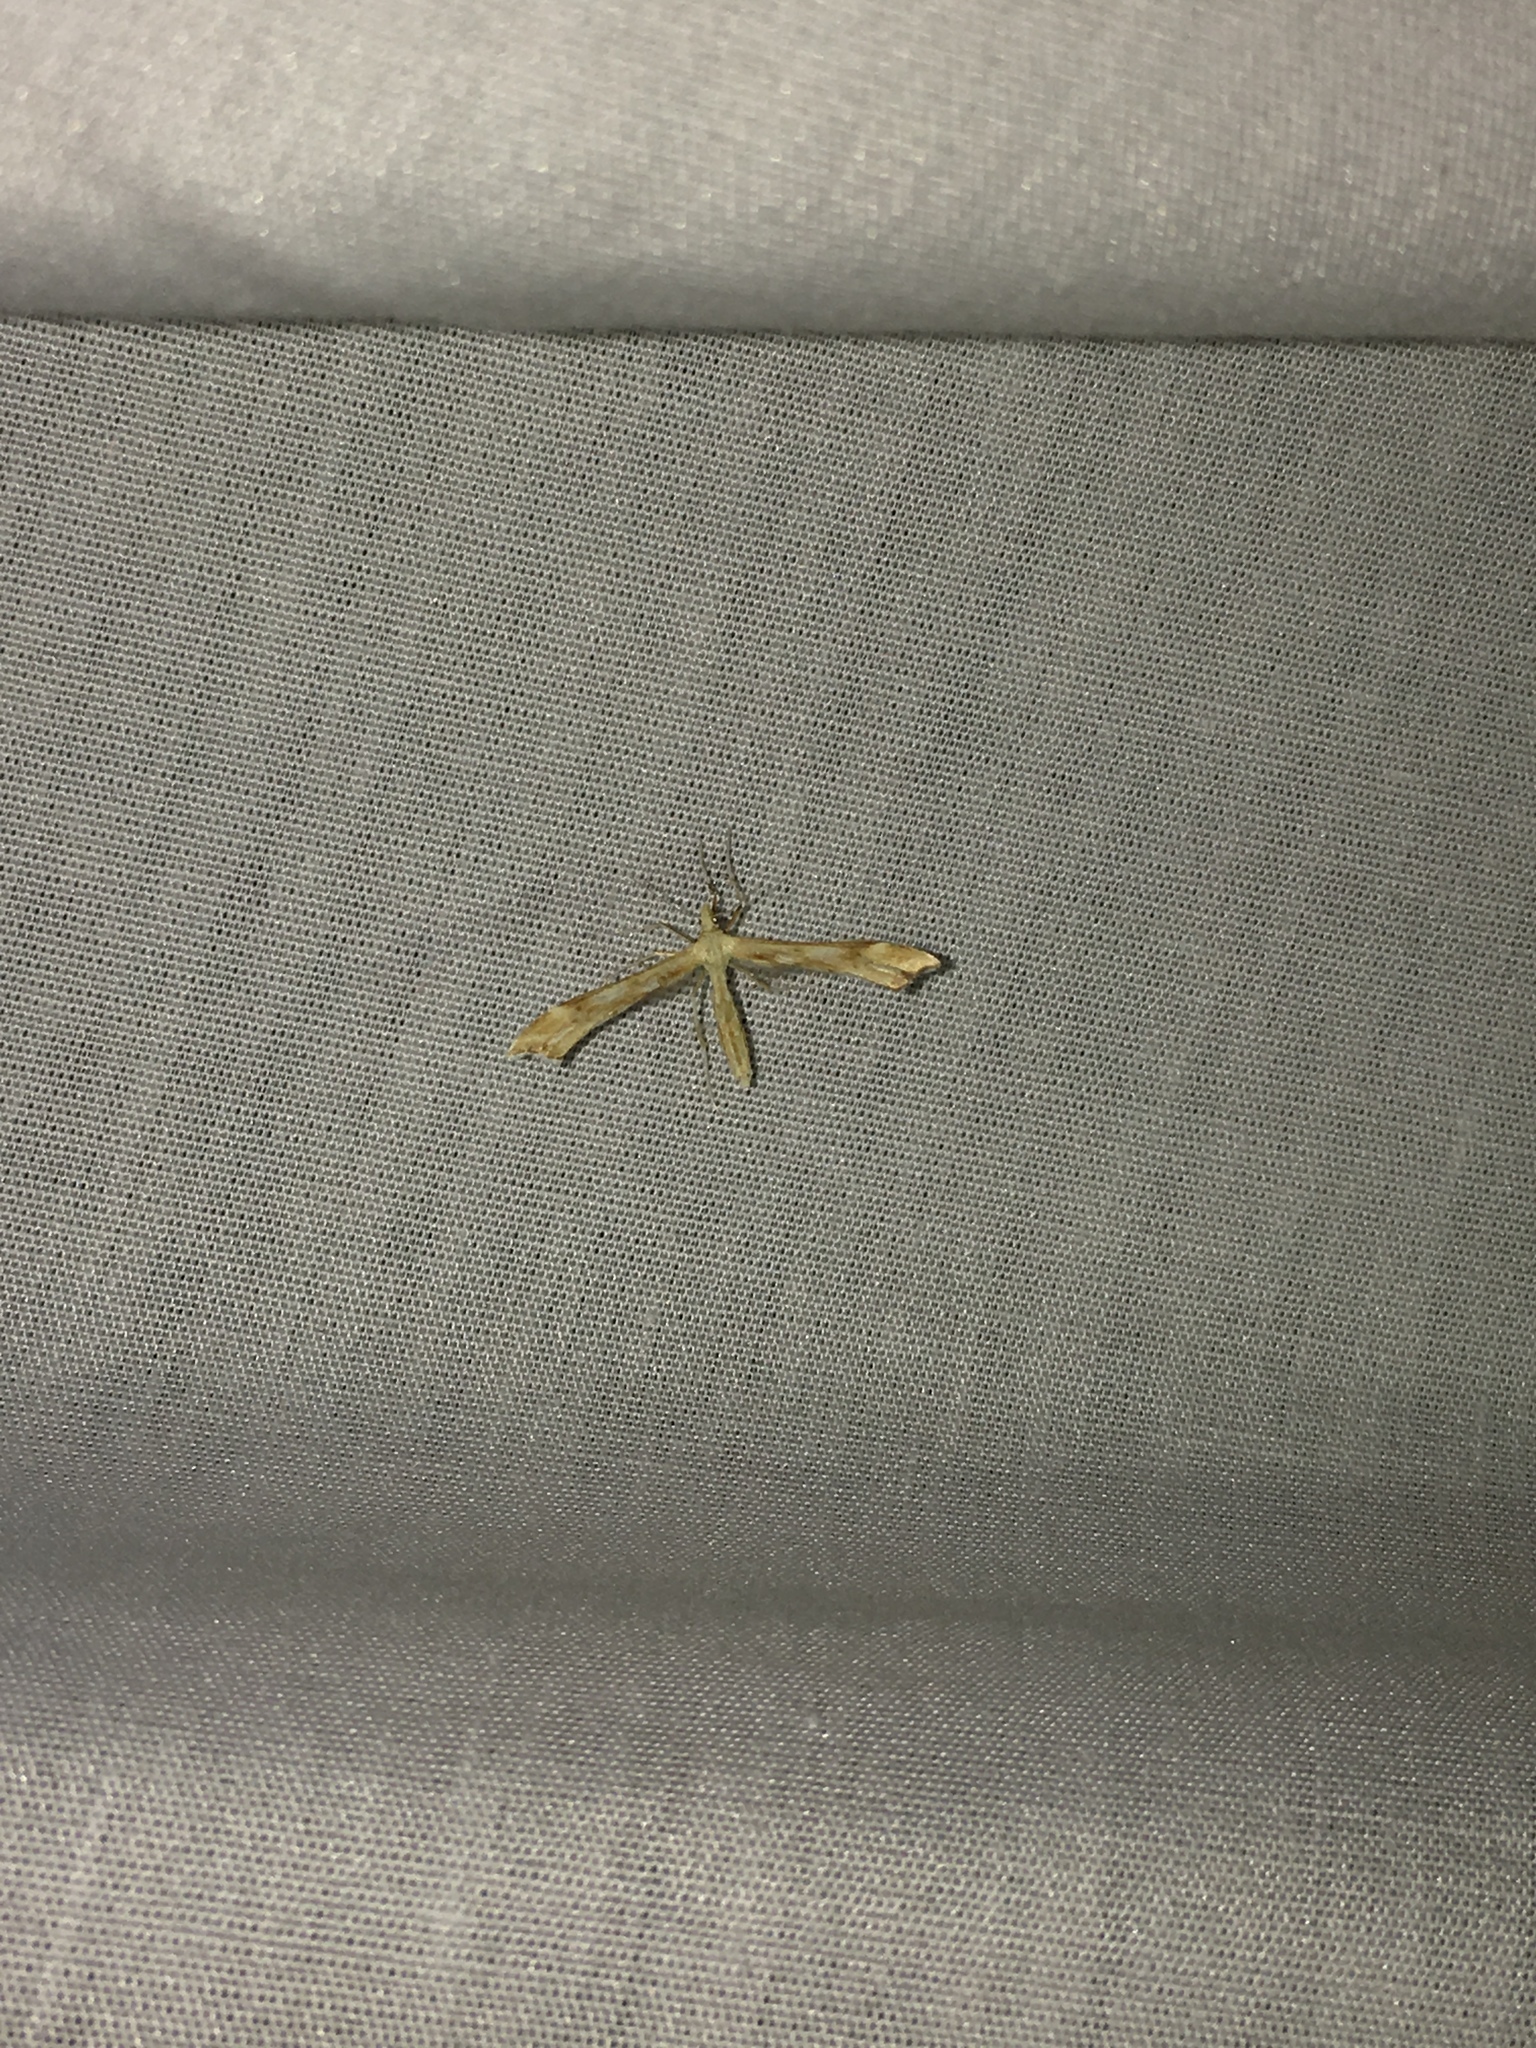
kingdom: Animalia
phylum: Arthropoda
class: Insecta
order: Lepidoptera
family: Pterophoridae
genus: Gillmeria
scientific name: Gillmeria pallidactyla
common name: Yarrow plume
